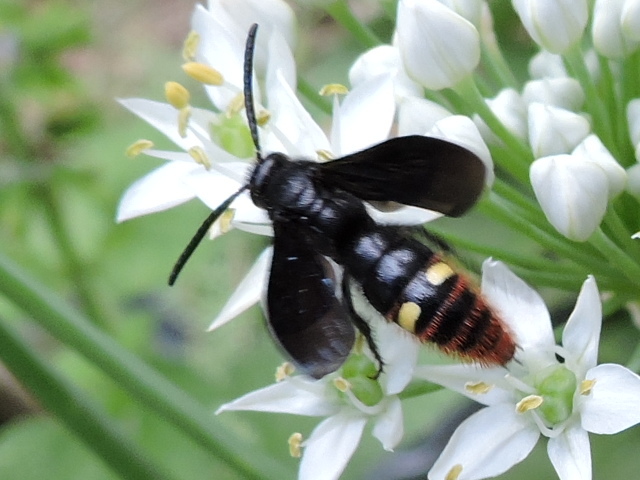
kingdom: Animalia
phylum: Arthropoda
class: Insecta
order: Hymenoptera
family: Scoliidae
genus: Scolia
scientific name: Scolia dubia
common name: Blue-winged scoliid wasp
